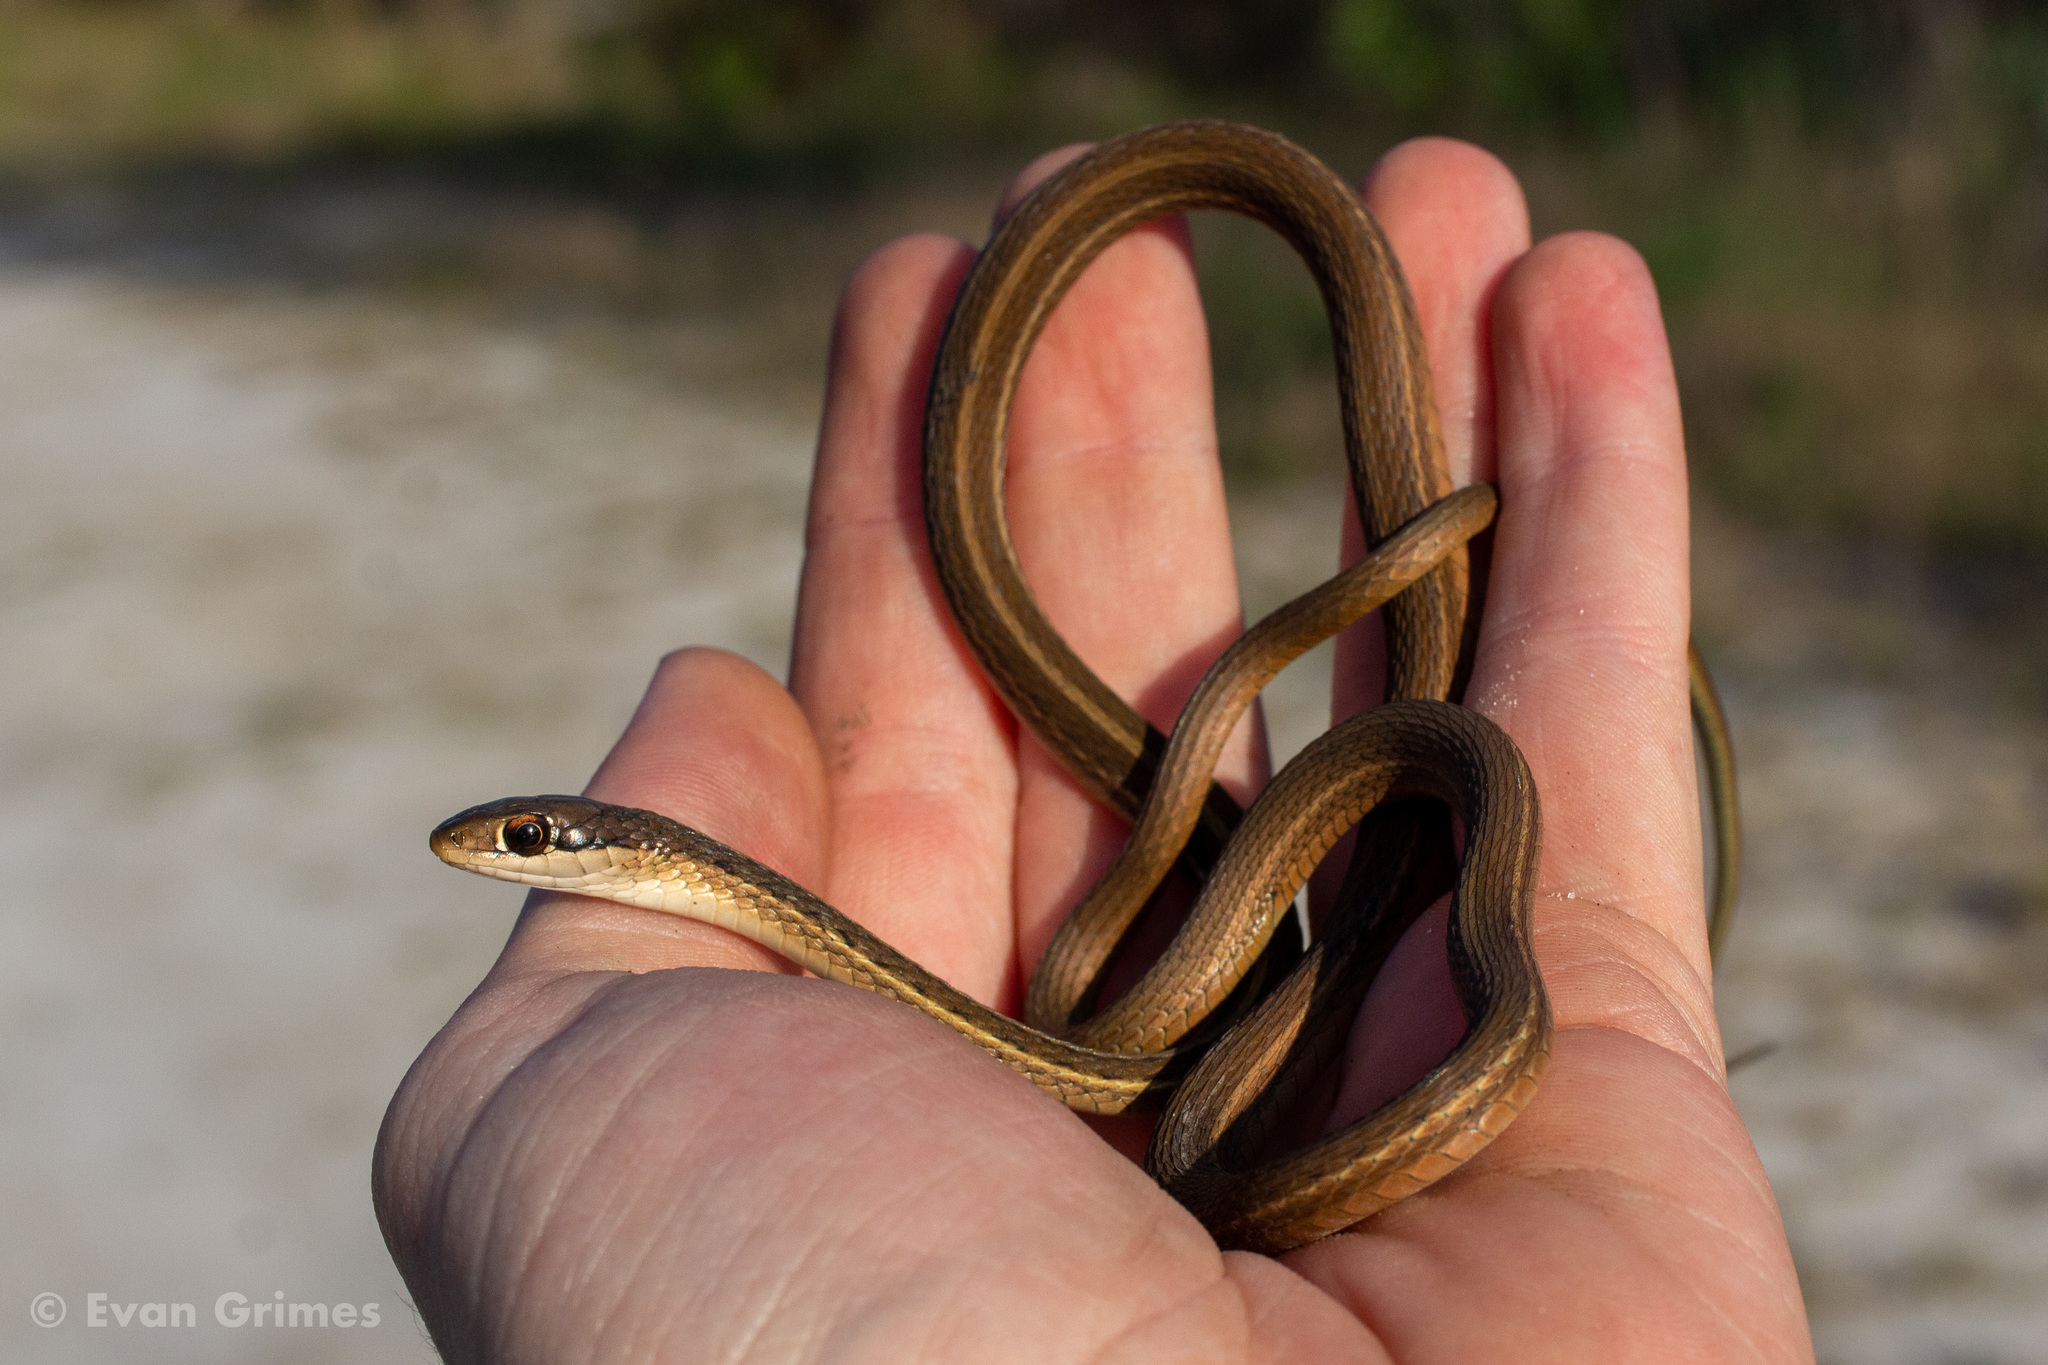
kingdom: Animalia
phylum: Chordata
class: Squamata
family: Colubridae
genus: Thamnophis
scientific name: Thamnophis saurita
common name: Eastern ribbonsnake
